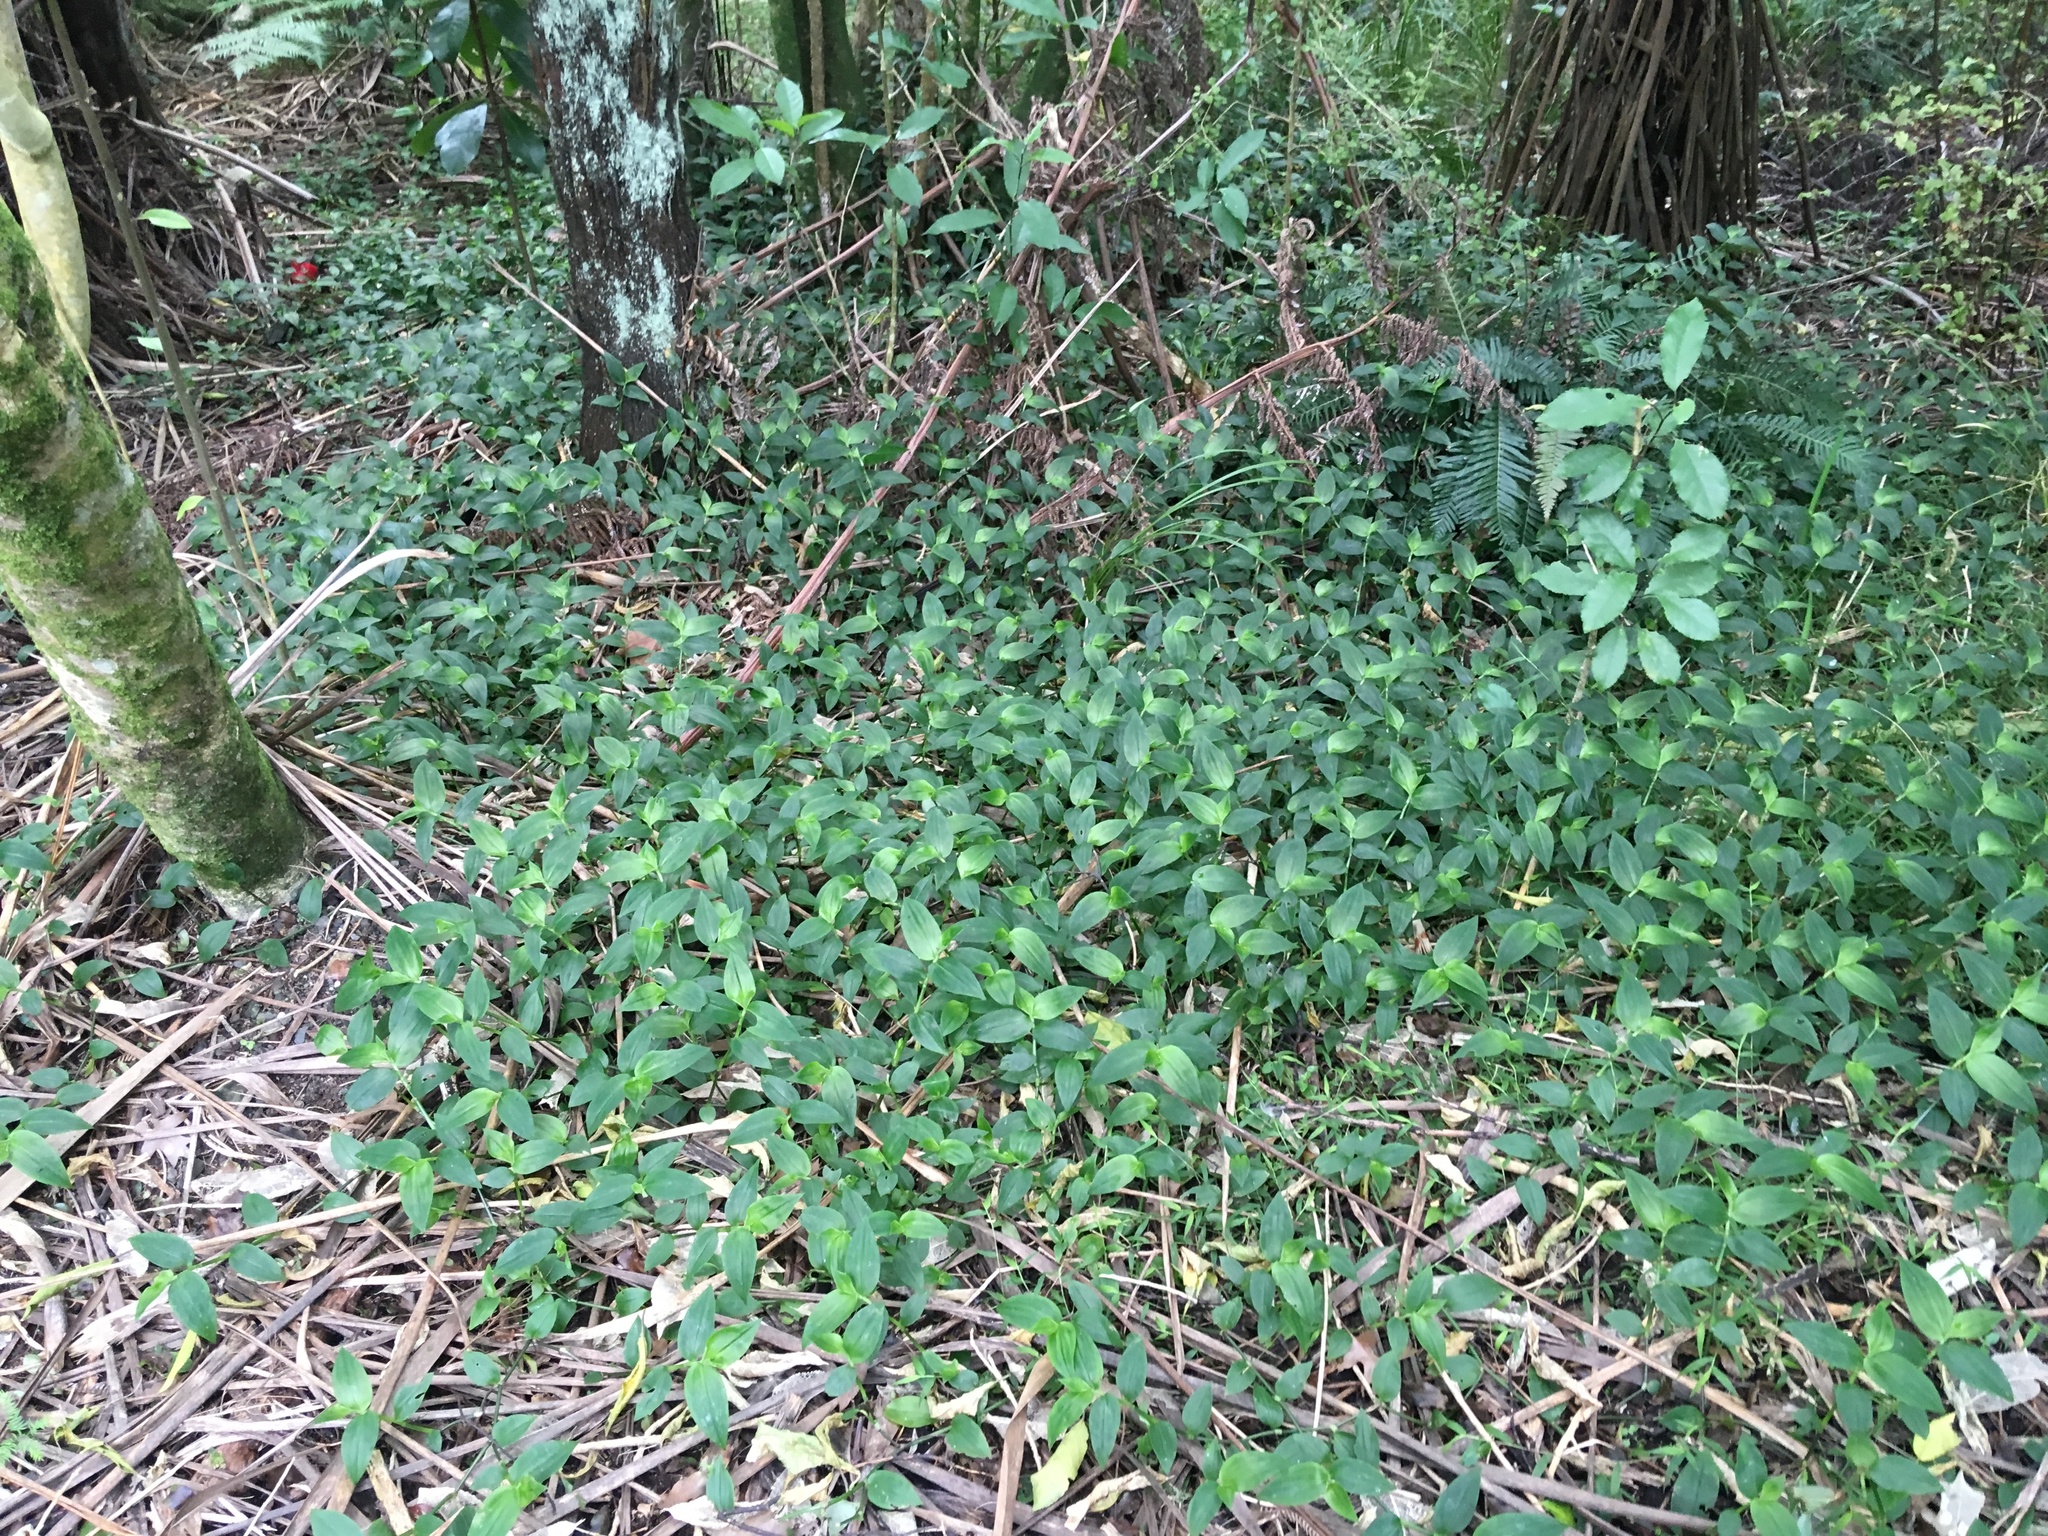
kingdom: Plantae
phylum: Tracheophyta
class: Liliopsida
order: Commelinales
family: Commelinaceae
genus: Tradescantia
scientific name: Tradescantia fluminensis
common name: Wandering-jew
